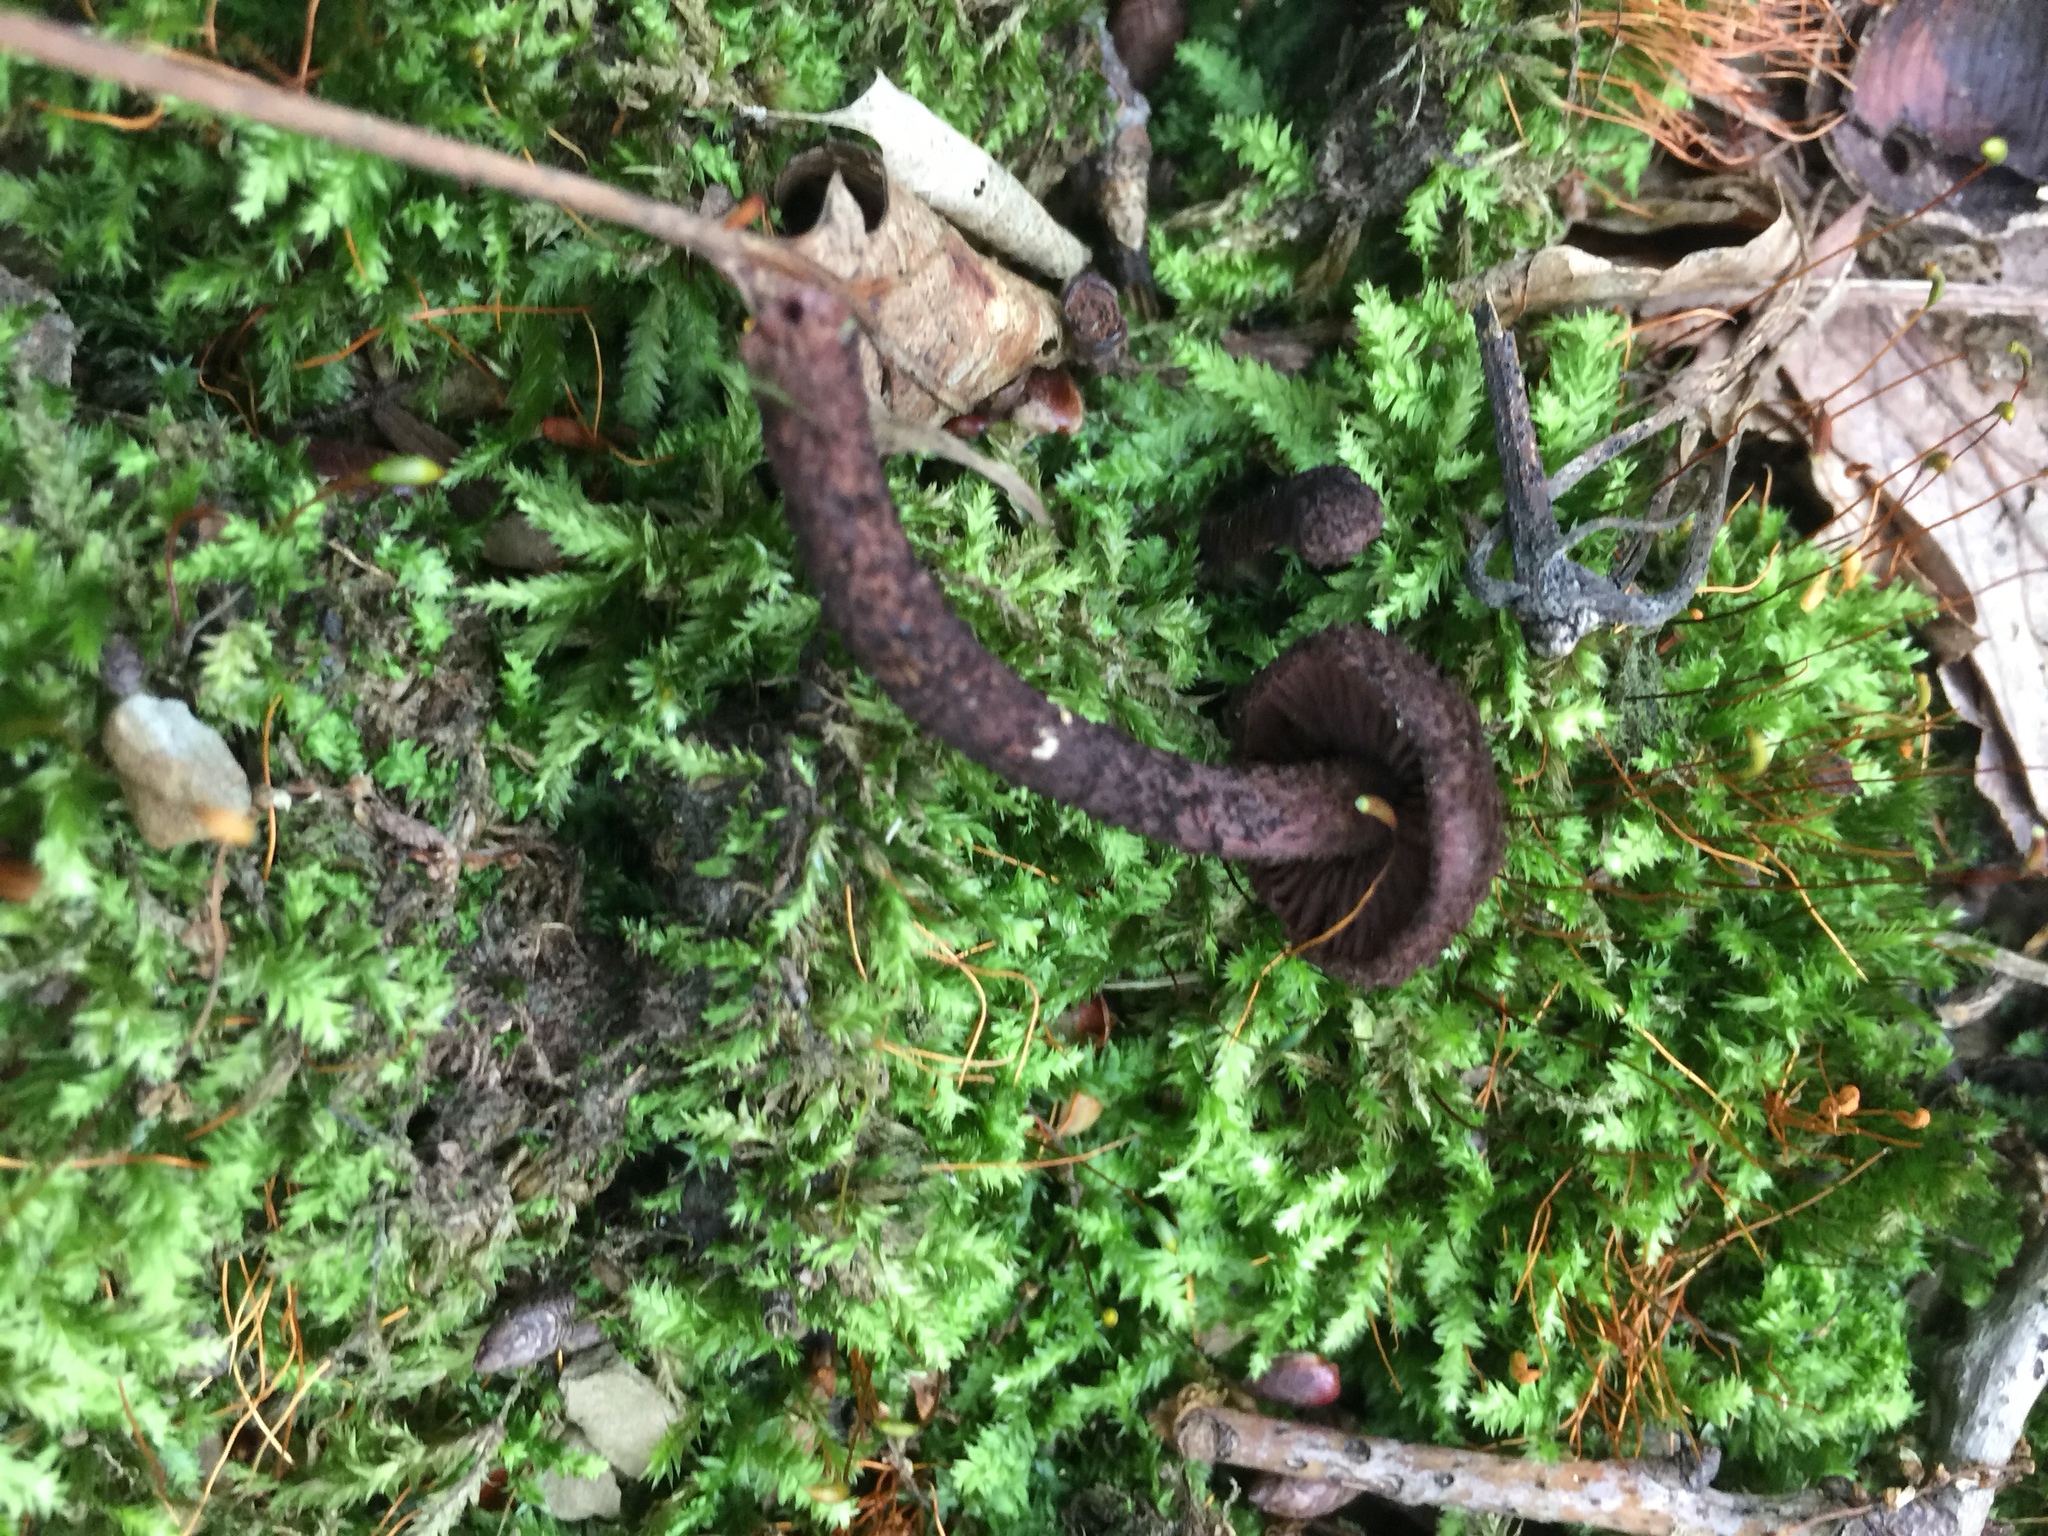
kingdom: Fungi
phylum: Basidiomycota
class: Agaricomycetes
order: Agaricales
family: Inocybaceae
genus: Inocybe
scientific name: Inocybe tahquamenonensis
